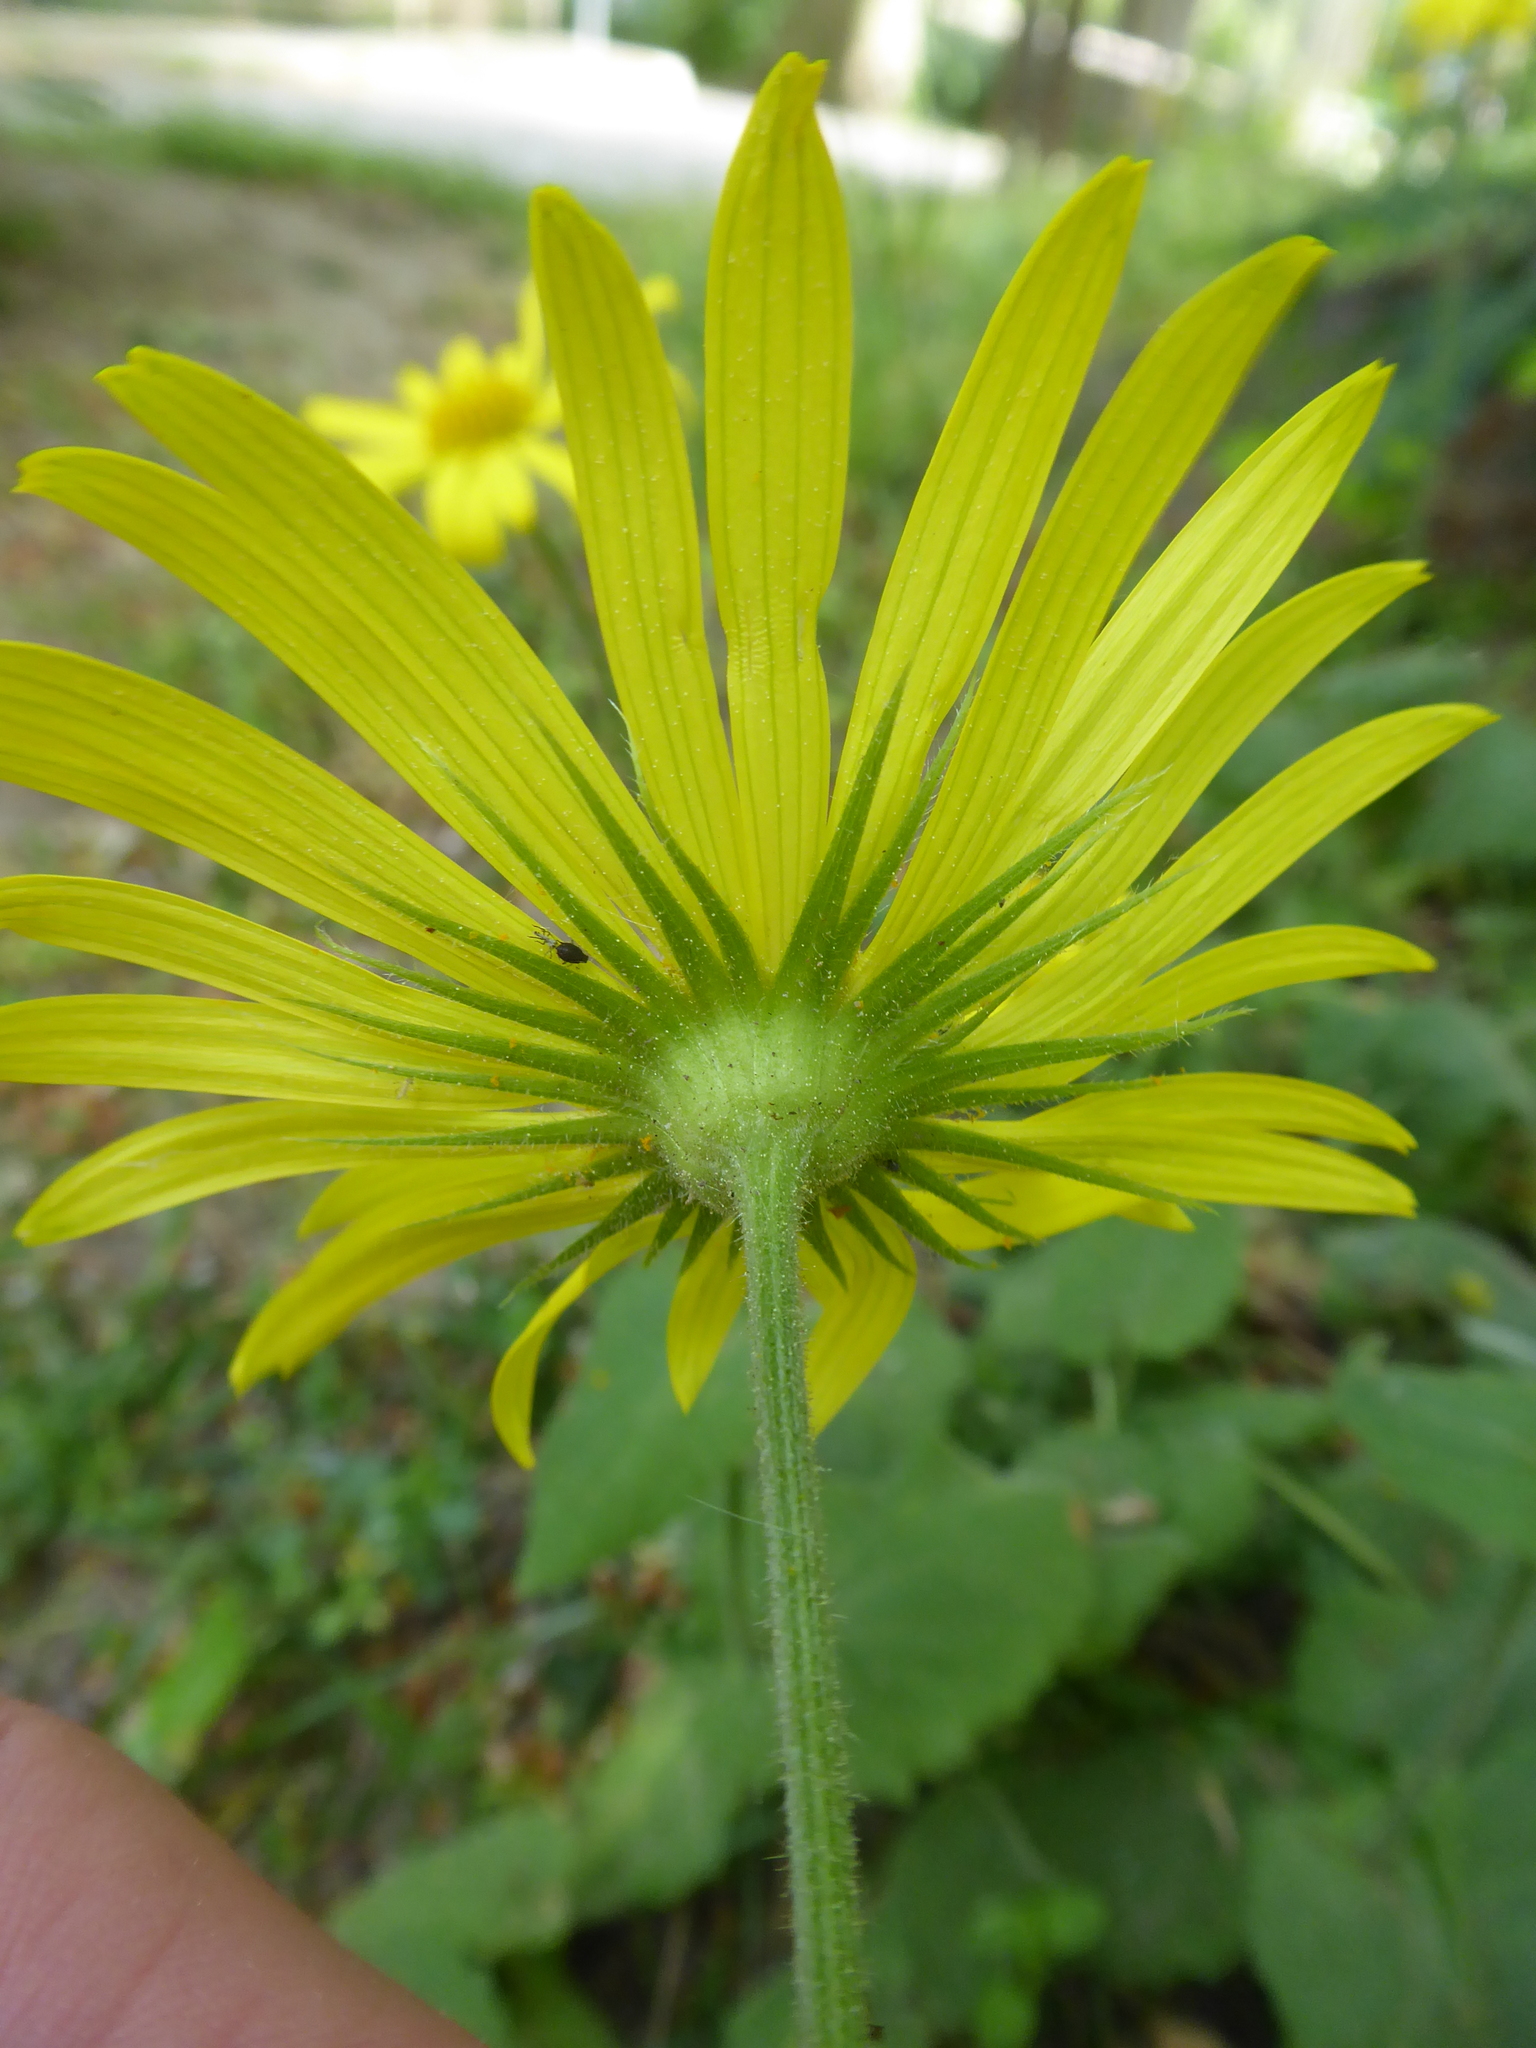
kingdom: Plantae
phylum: Tracheophyta
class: Magnoliopsida
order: Asterales
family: Asteraceae
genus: Doronicum
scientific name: Doronicum pardalianches
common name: Leopard's-bane
